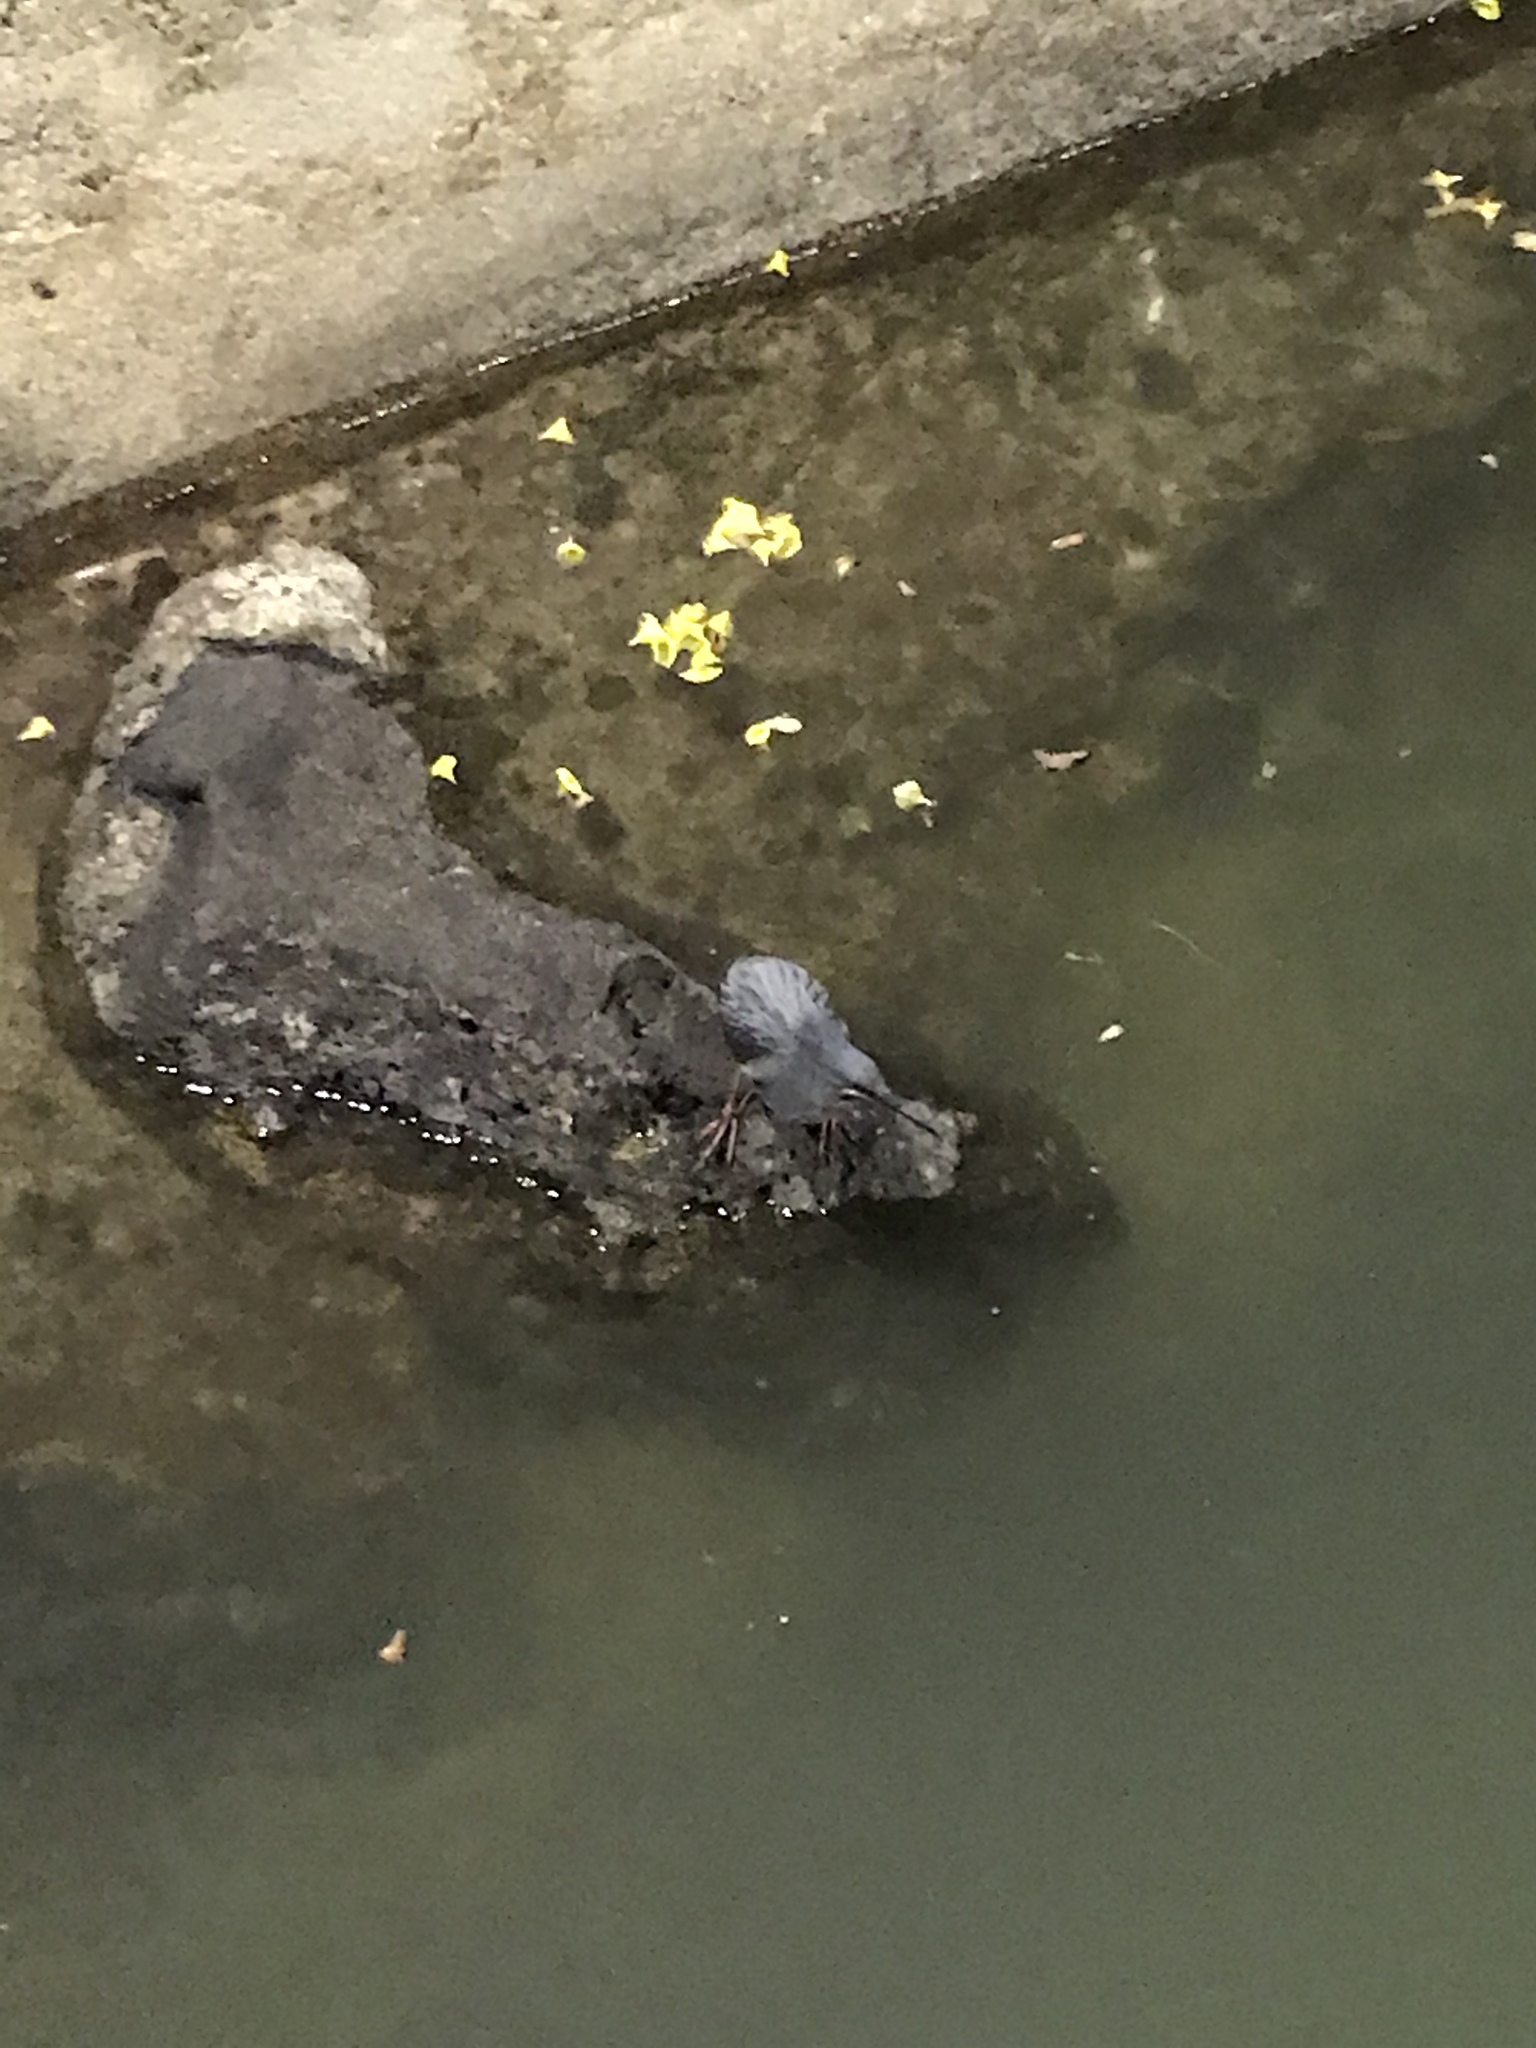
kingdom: Animalia
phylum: Chordata
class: Aves
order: Pelecaniformes
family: Ardeidae
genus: Butorides
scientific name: Butorides striata
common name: Striated heron
